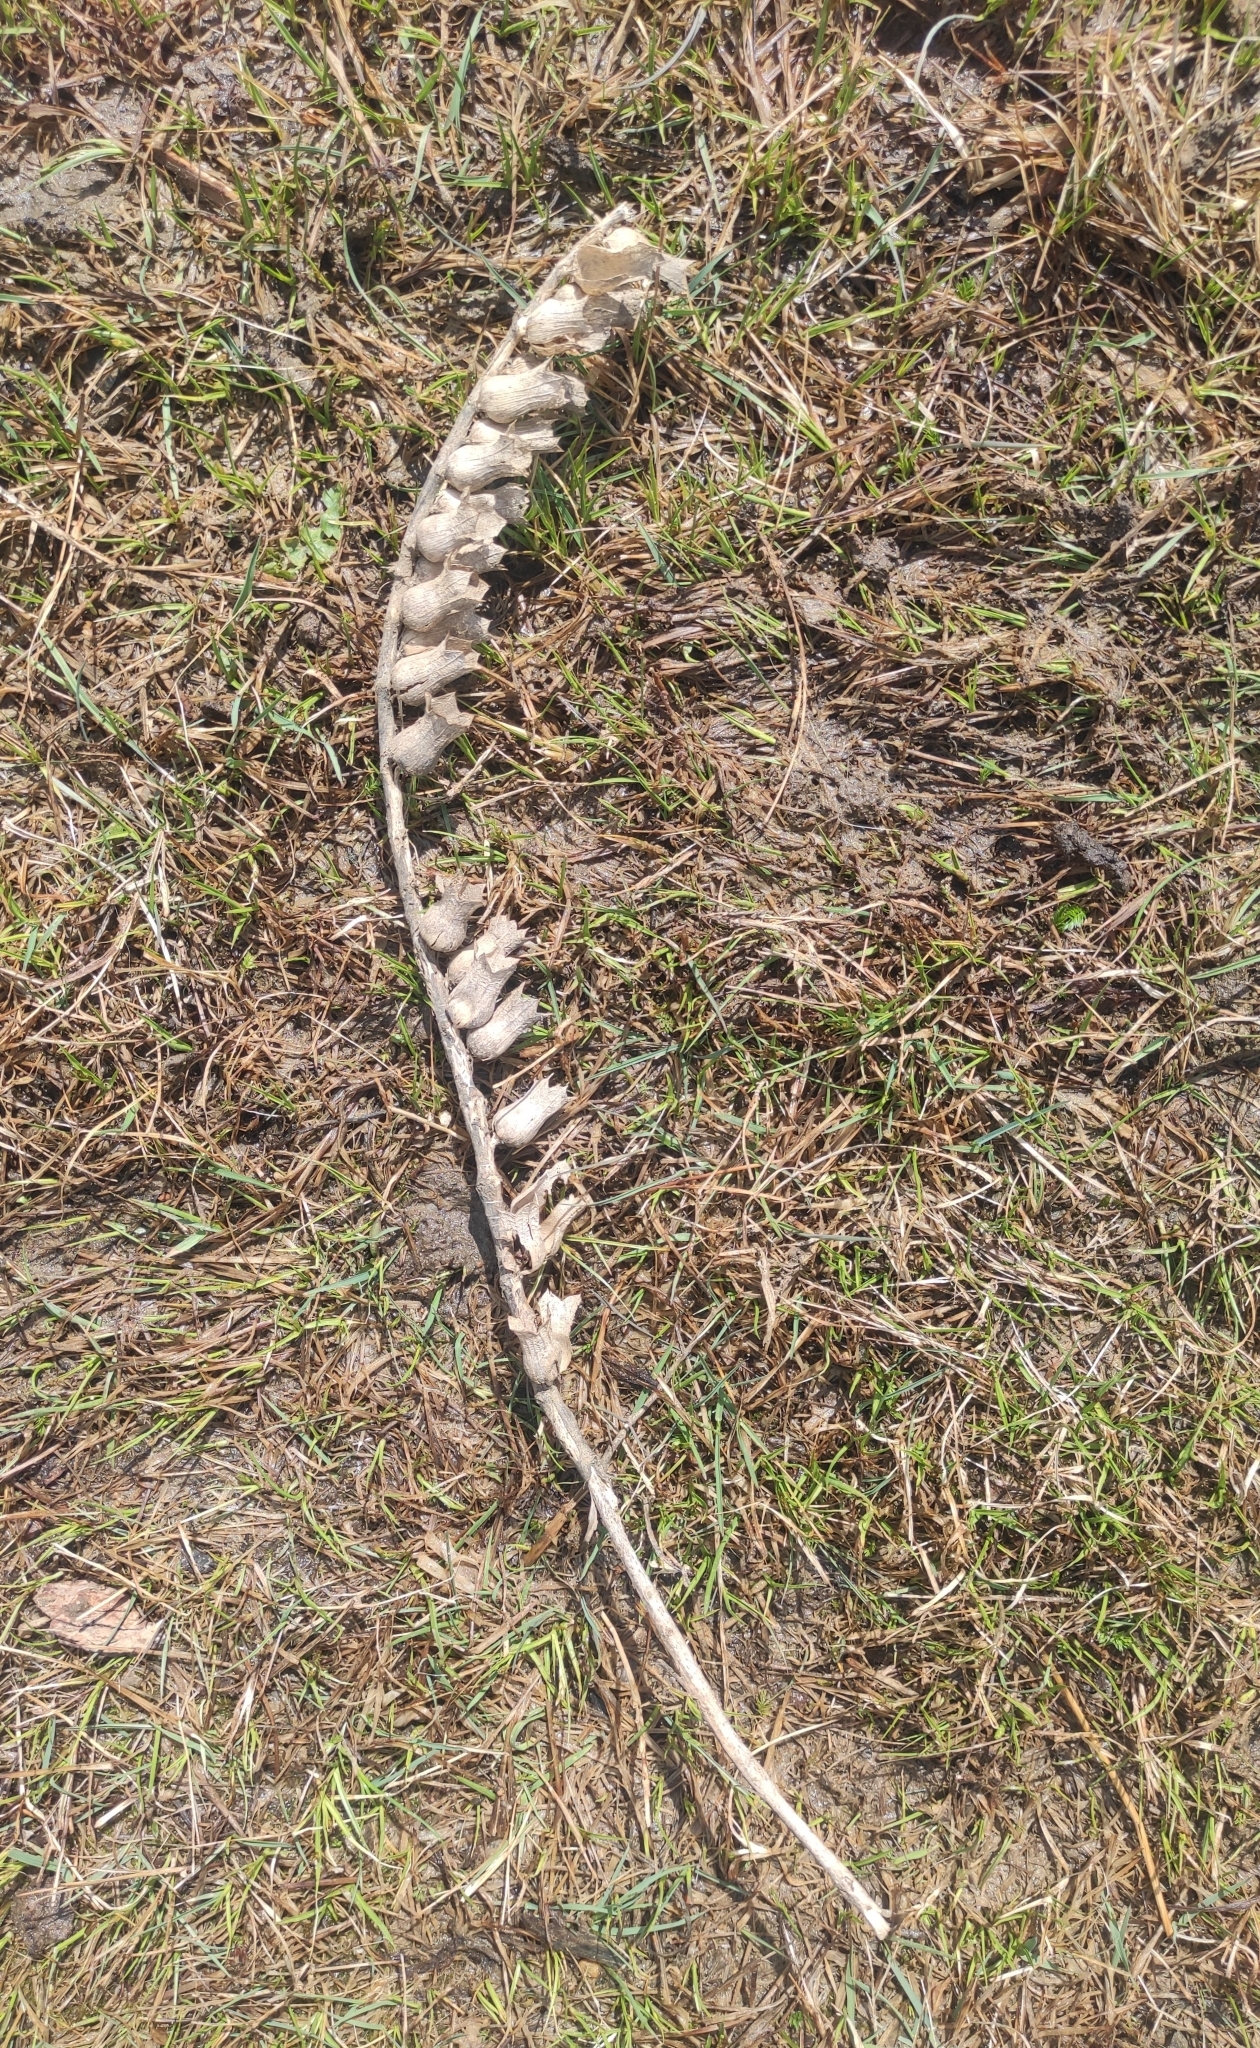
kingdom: Plantae
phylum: Tracheophyta
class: Magnoliopsida
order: Solanales
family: Solanaceae
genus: Hyoscyamus
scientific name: Hyoscyamus niger
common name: Henbane
